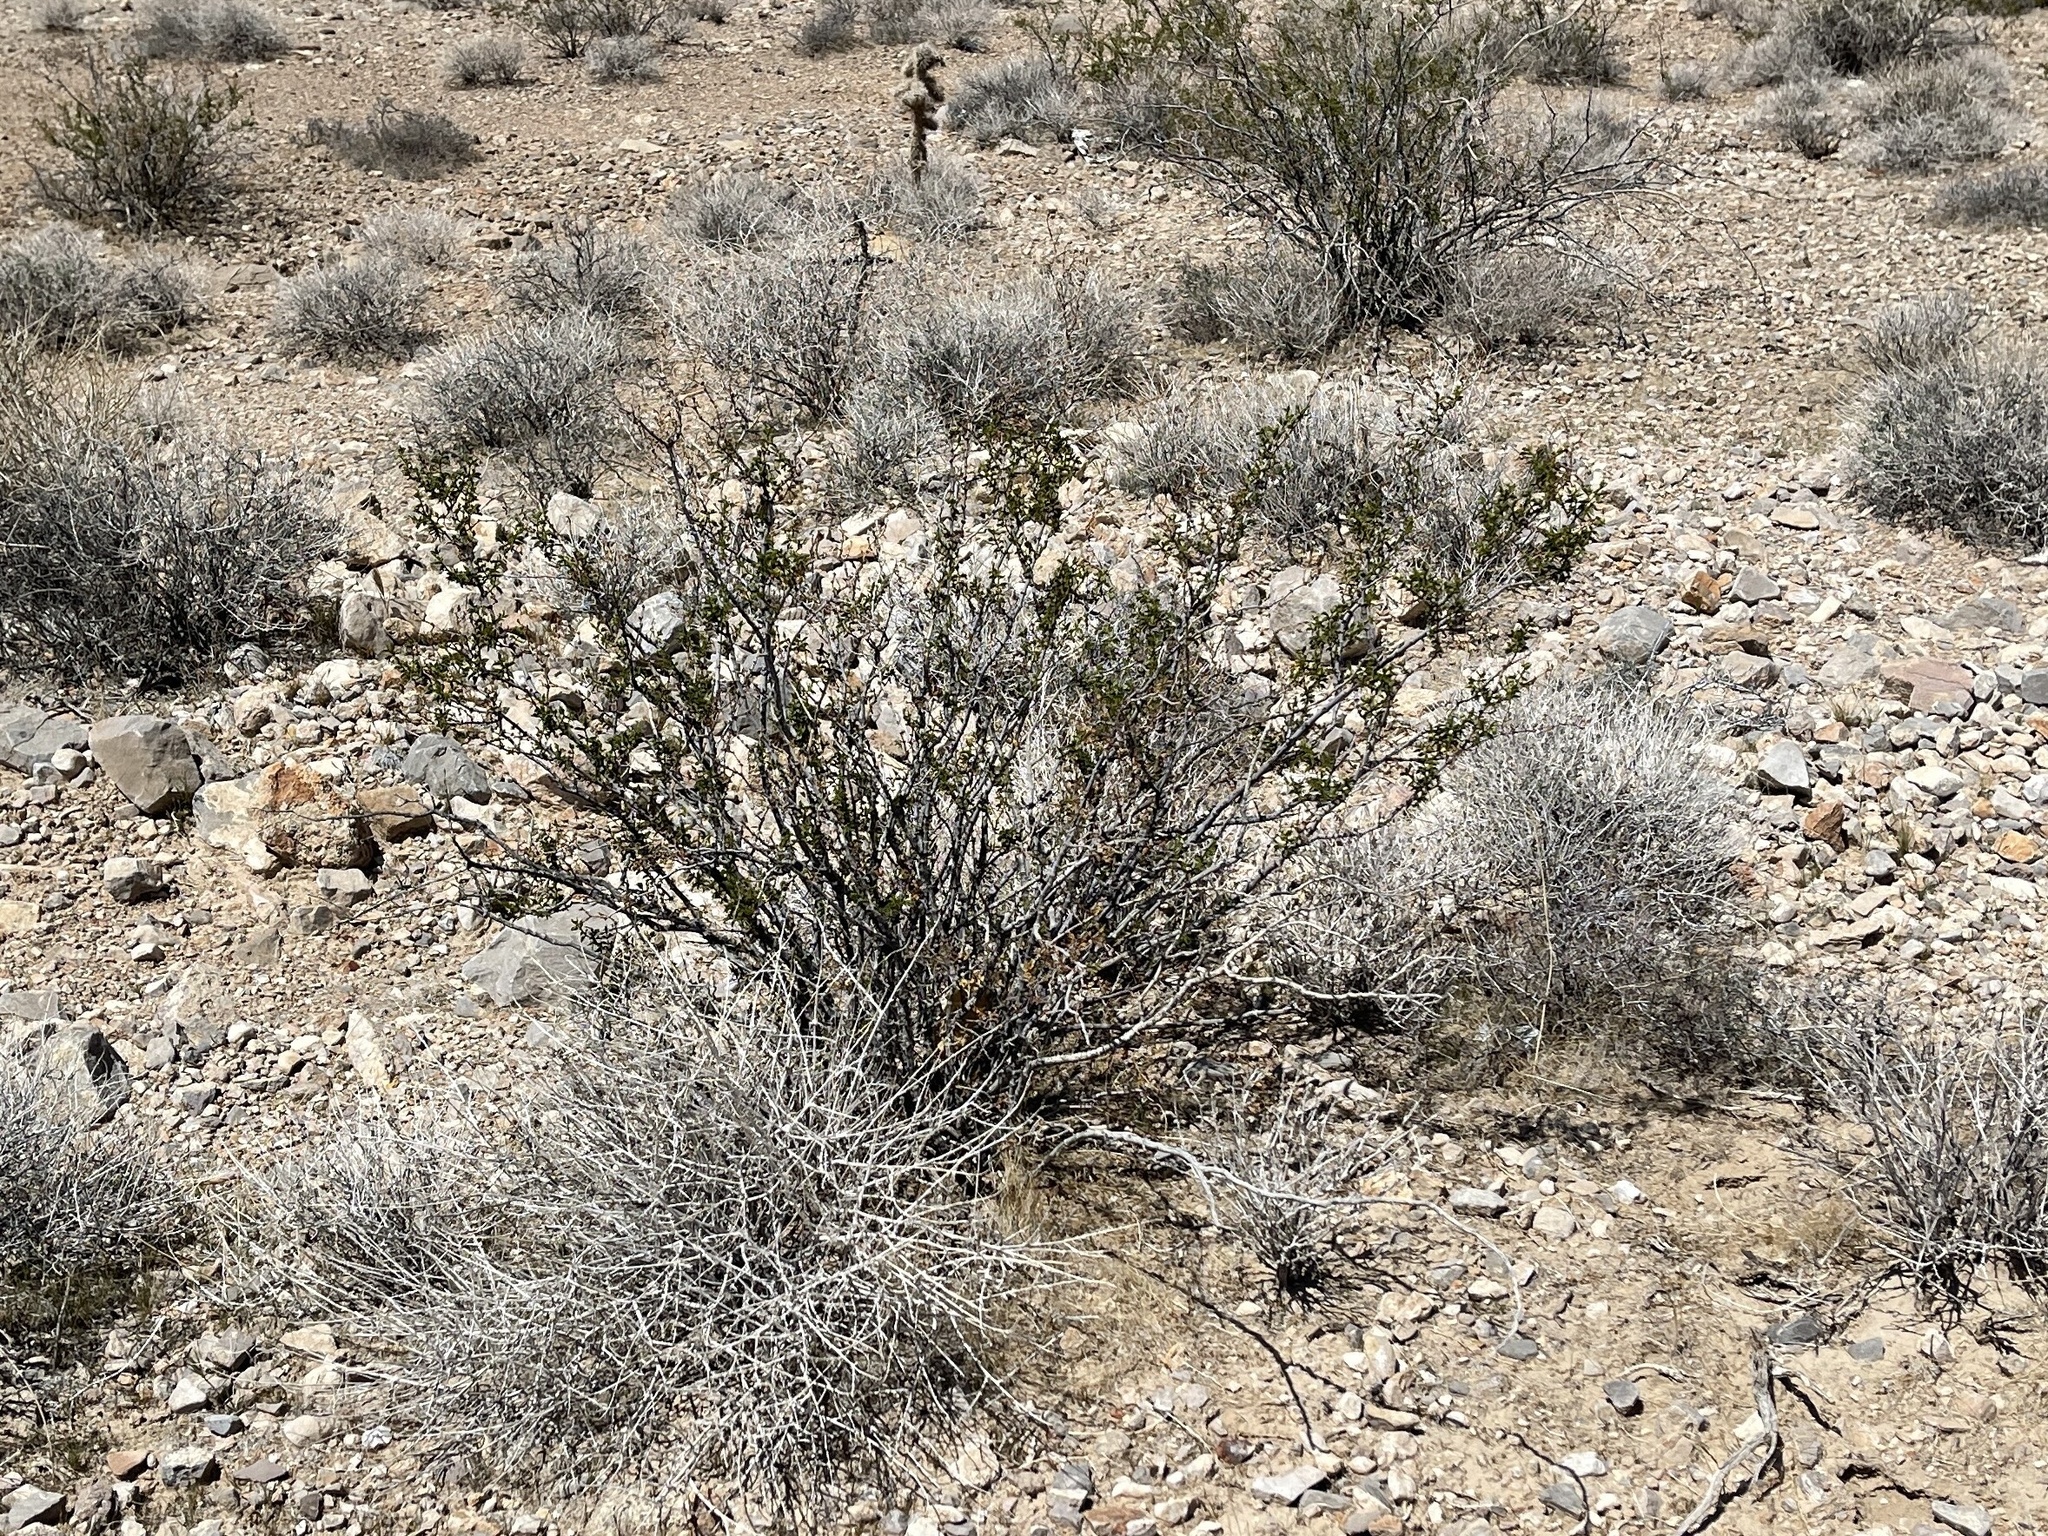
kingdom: Plantae
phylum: Tracheophyta
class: Magnoliopsida
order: Zygophyllales
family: Zygophyllaceae
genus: Larrea
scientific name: Larrea tridentata
